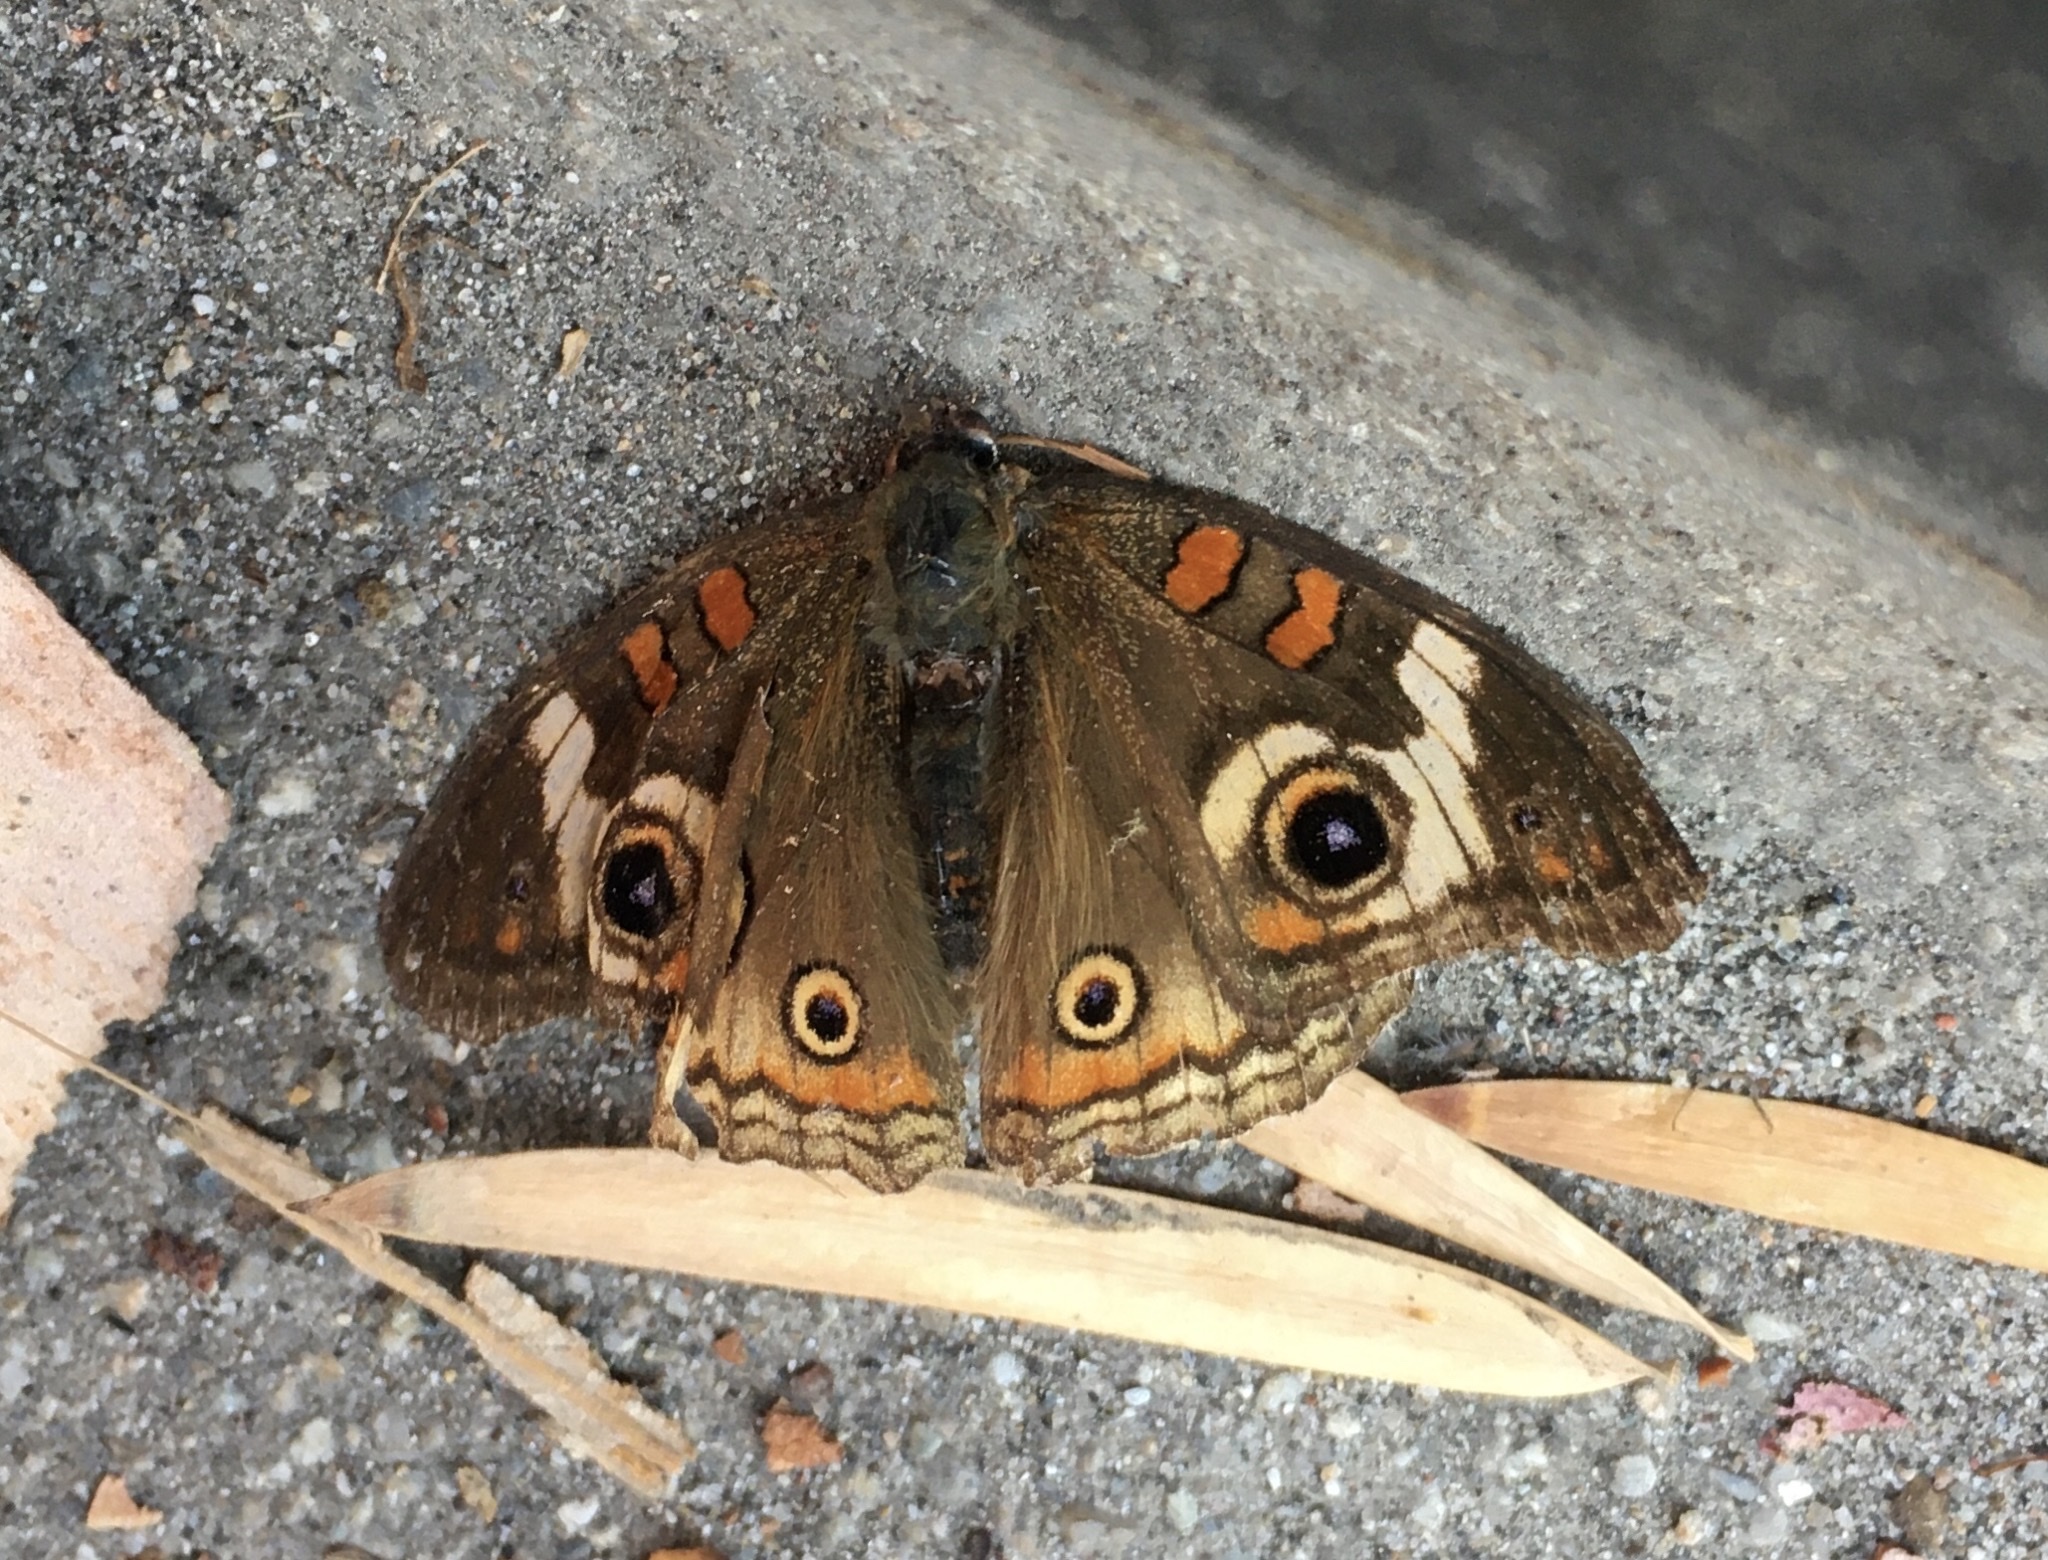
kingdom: Animalia
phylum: Arthropoda
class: Insecta
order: Lepidoptera
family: Nymphalidae
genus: Junonia
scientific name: Junonia grisea
